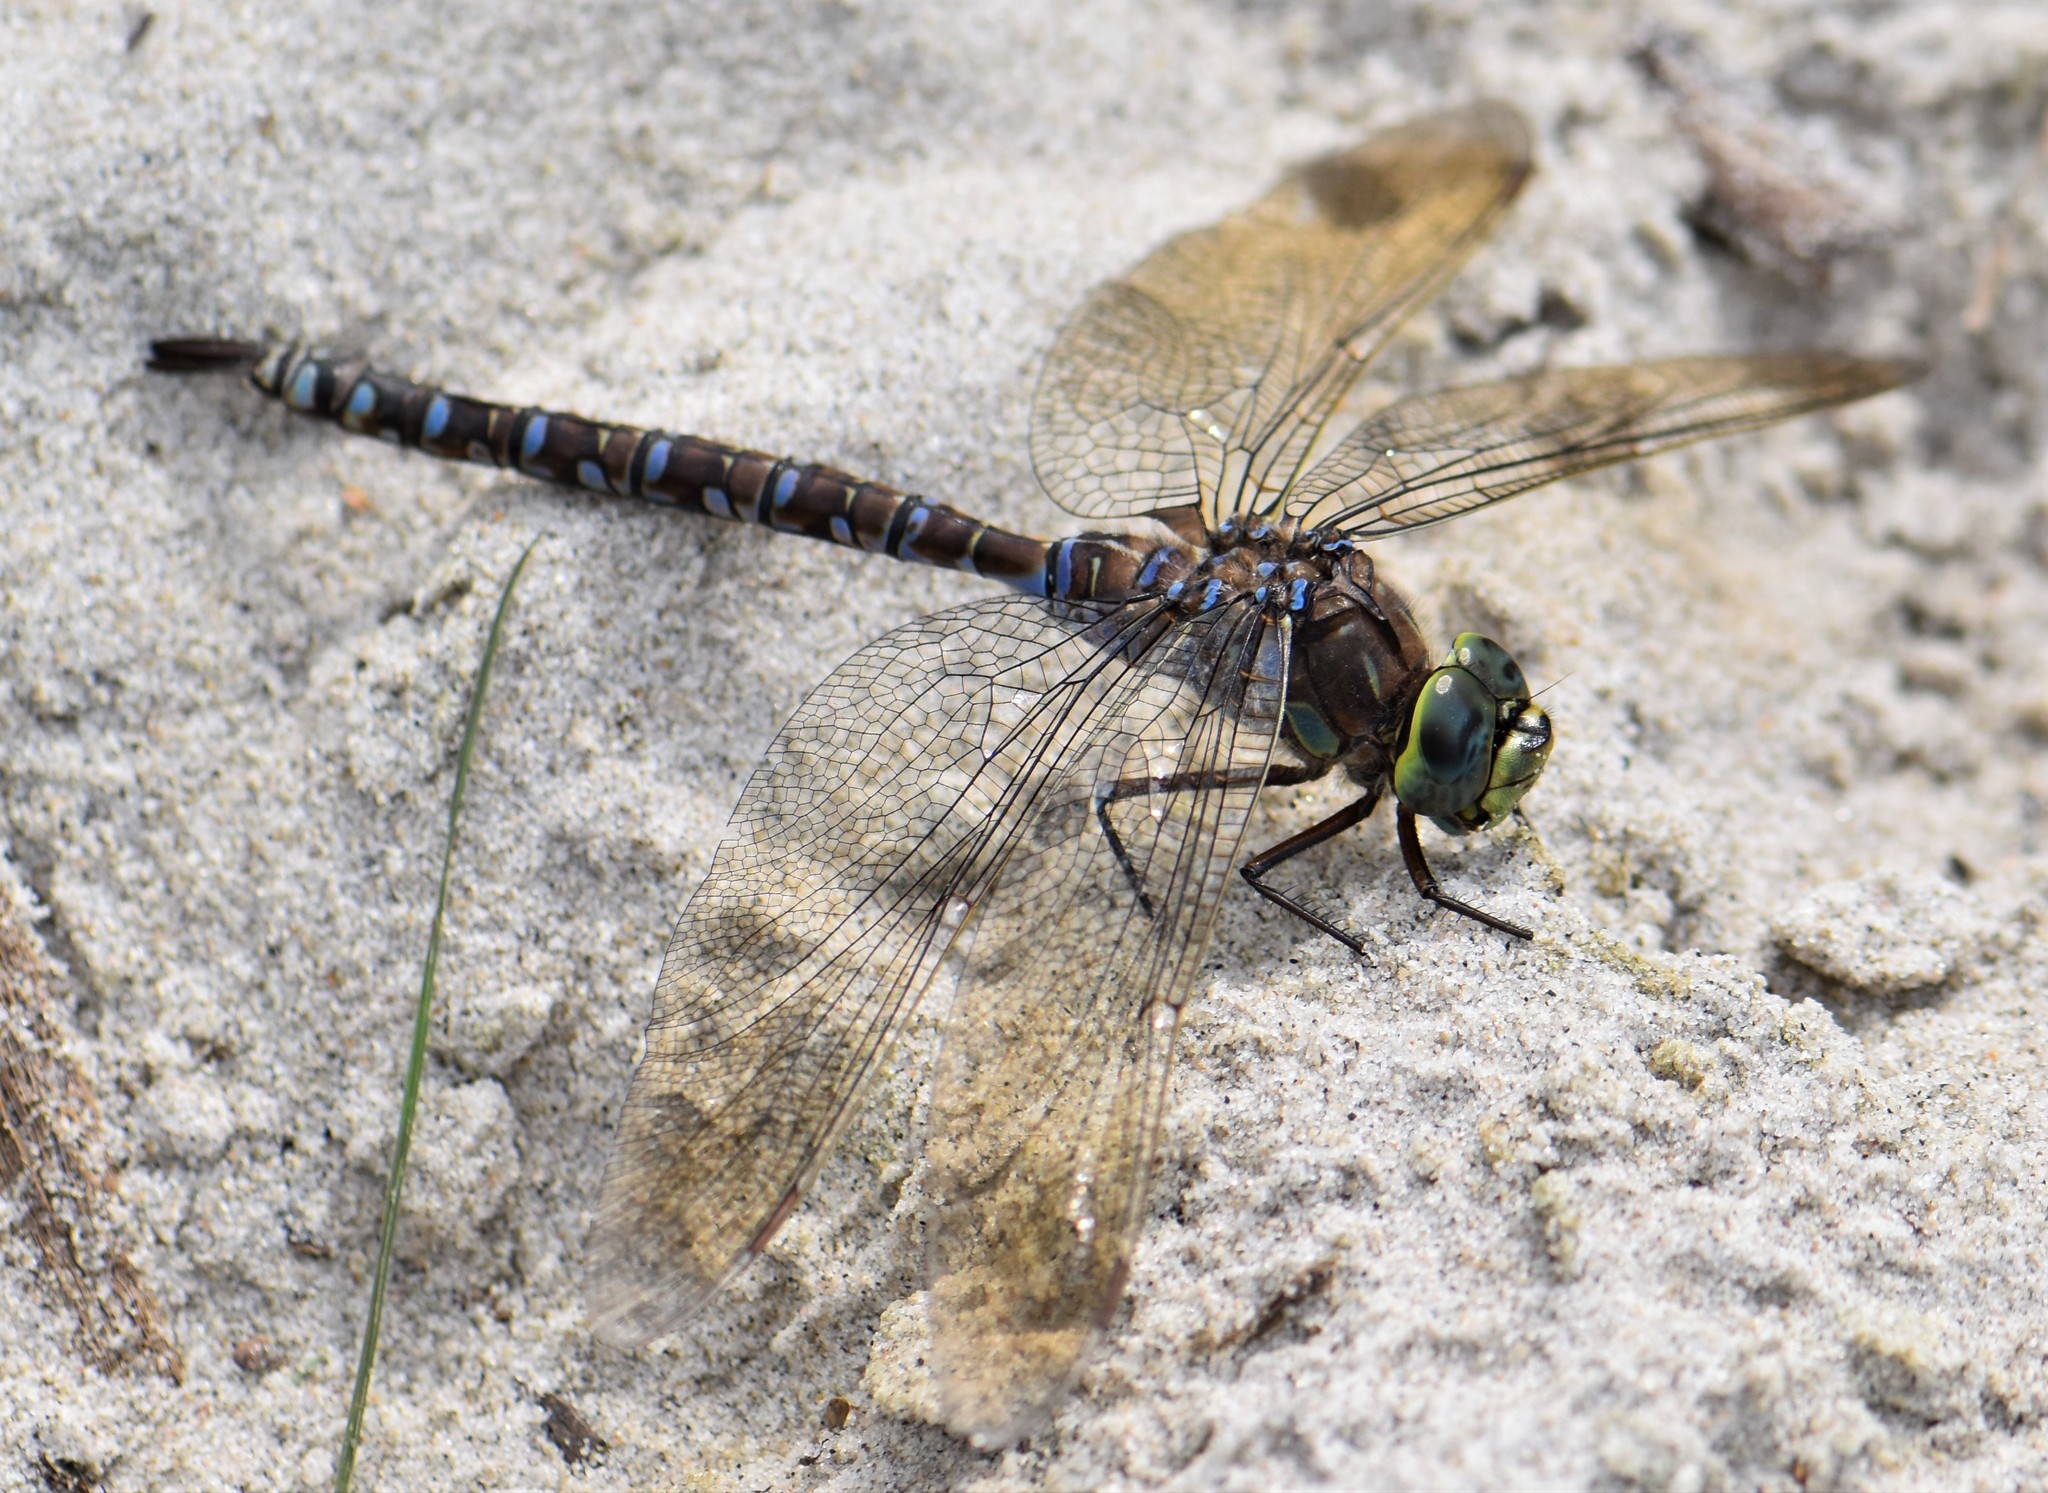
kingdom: Animalia
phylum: Arthropoda
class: Insecta
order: Odonata
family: Aeshnidae
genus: Aeshna
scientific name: Aeshna eremita
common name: Lake darner
